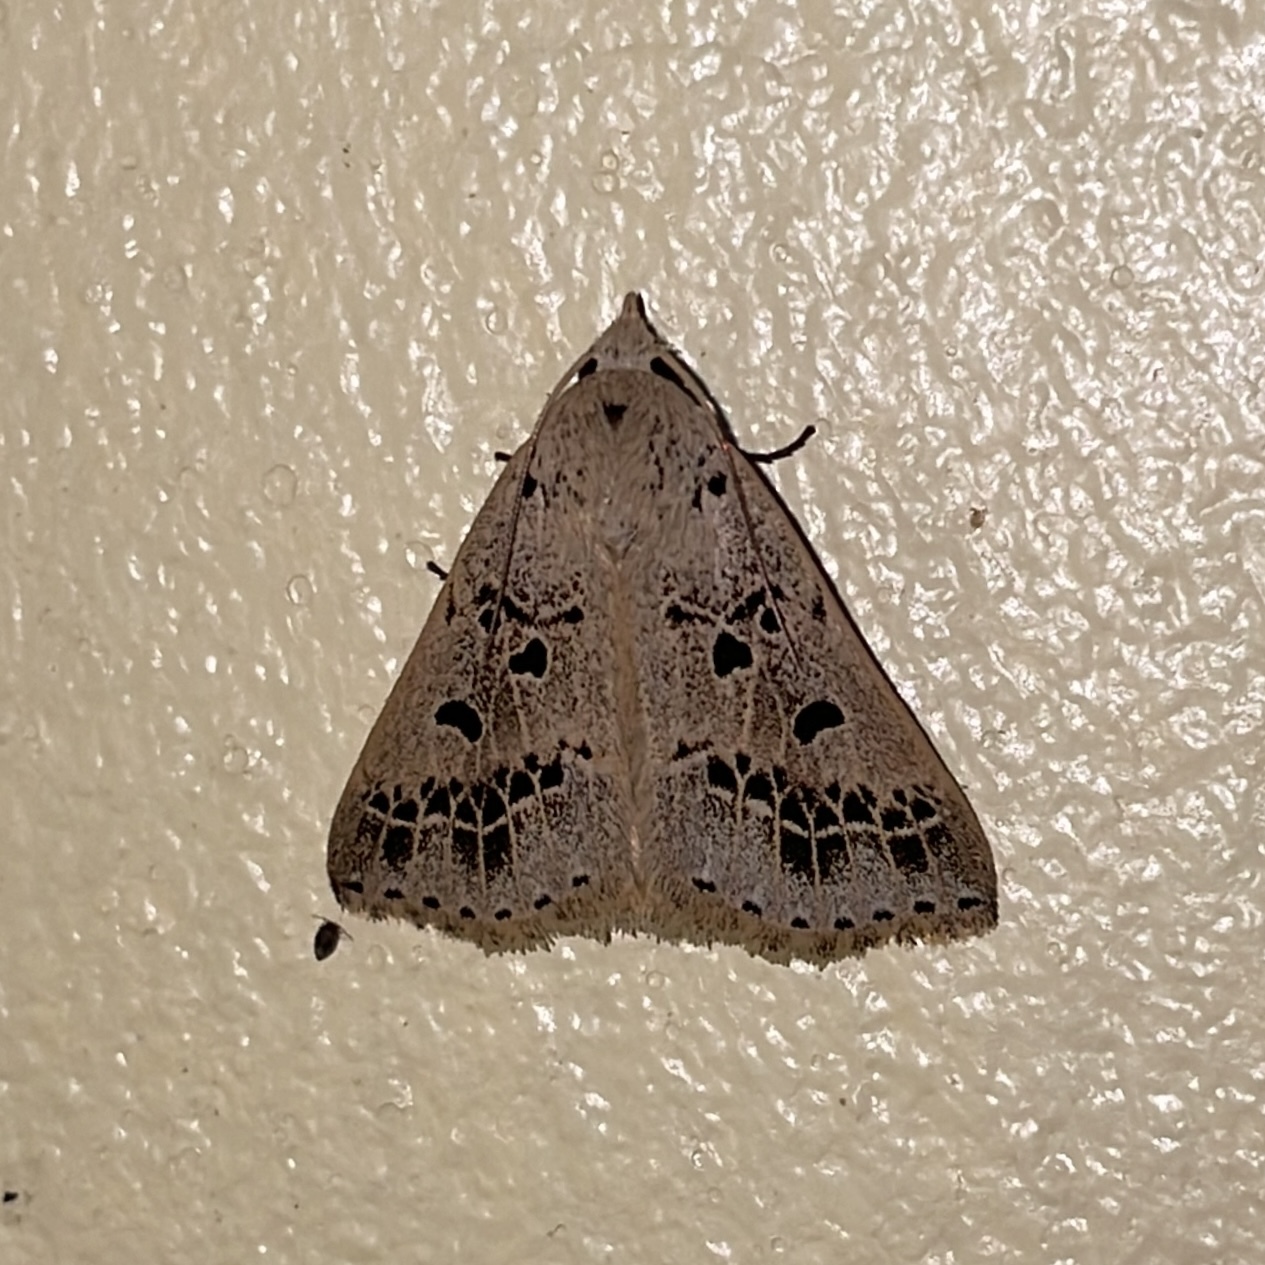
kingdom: Animalia
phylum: Arthropoda
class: Insecta
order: Lepidoptera
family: Erebidae
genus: Scolecocampa
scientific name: Scolecocampa Herminodes atrosignata
